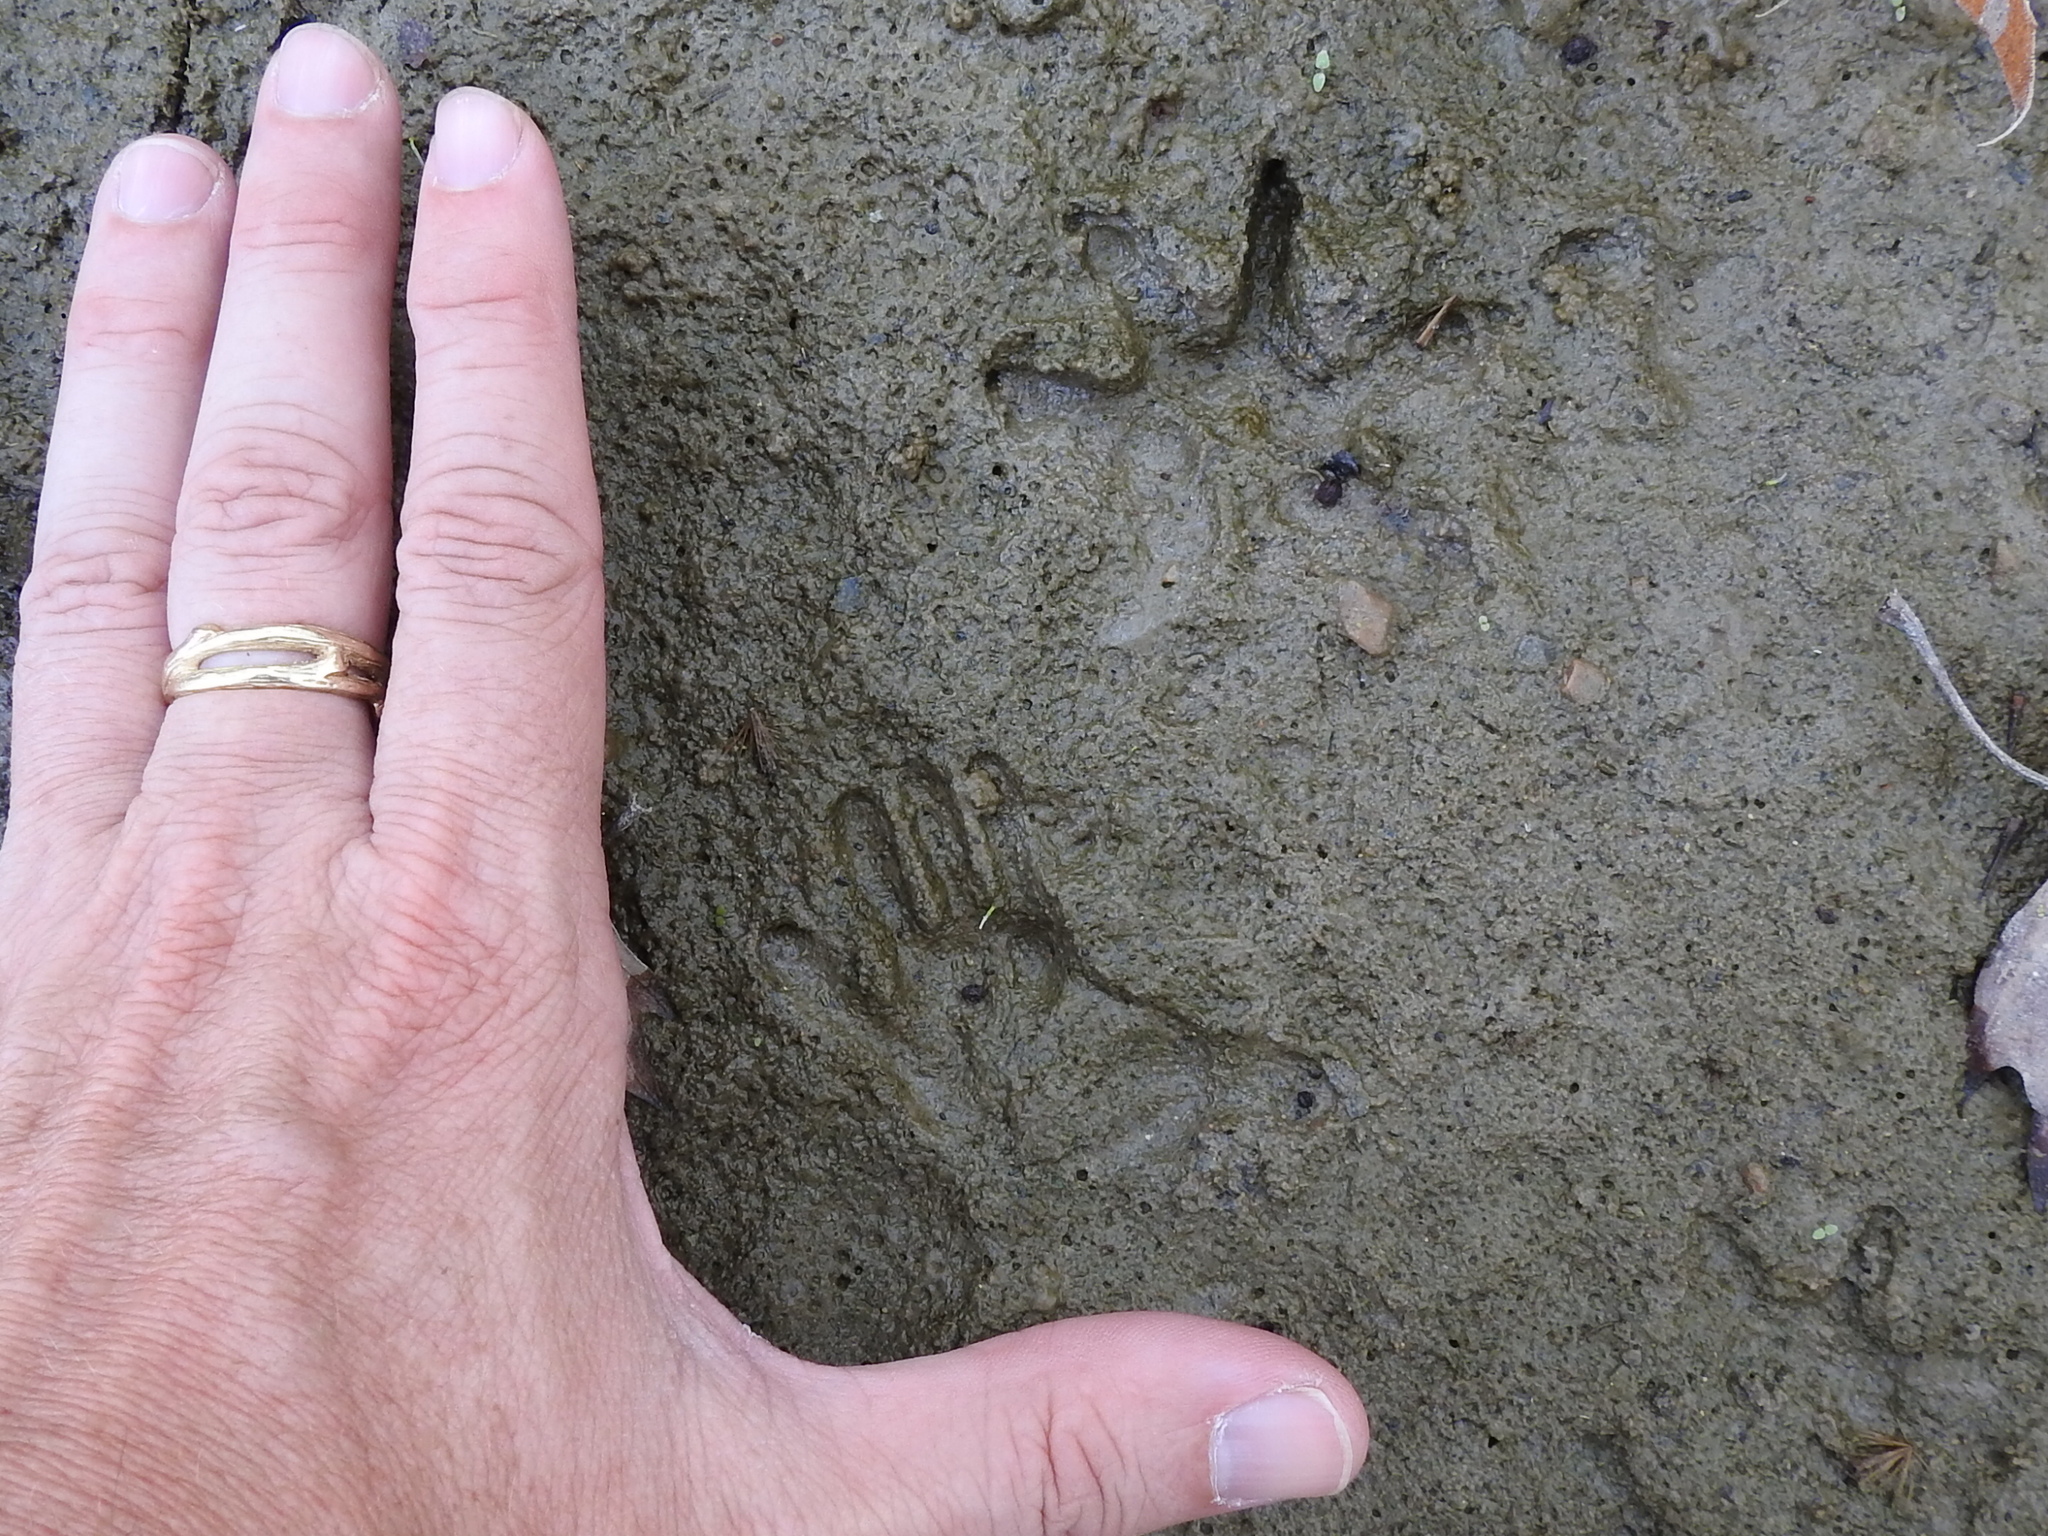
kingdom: Animalia
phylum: Chordata
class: Mammalia
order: Didelphimorphia
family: Didelphidae
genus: Didelphis
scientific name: Didelphis virginiana
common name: Virginia opossum
